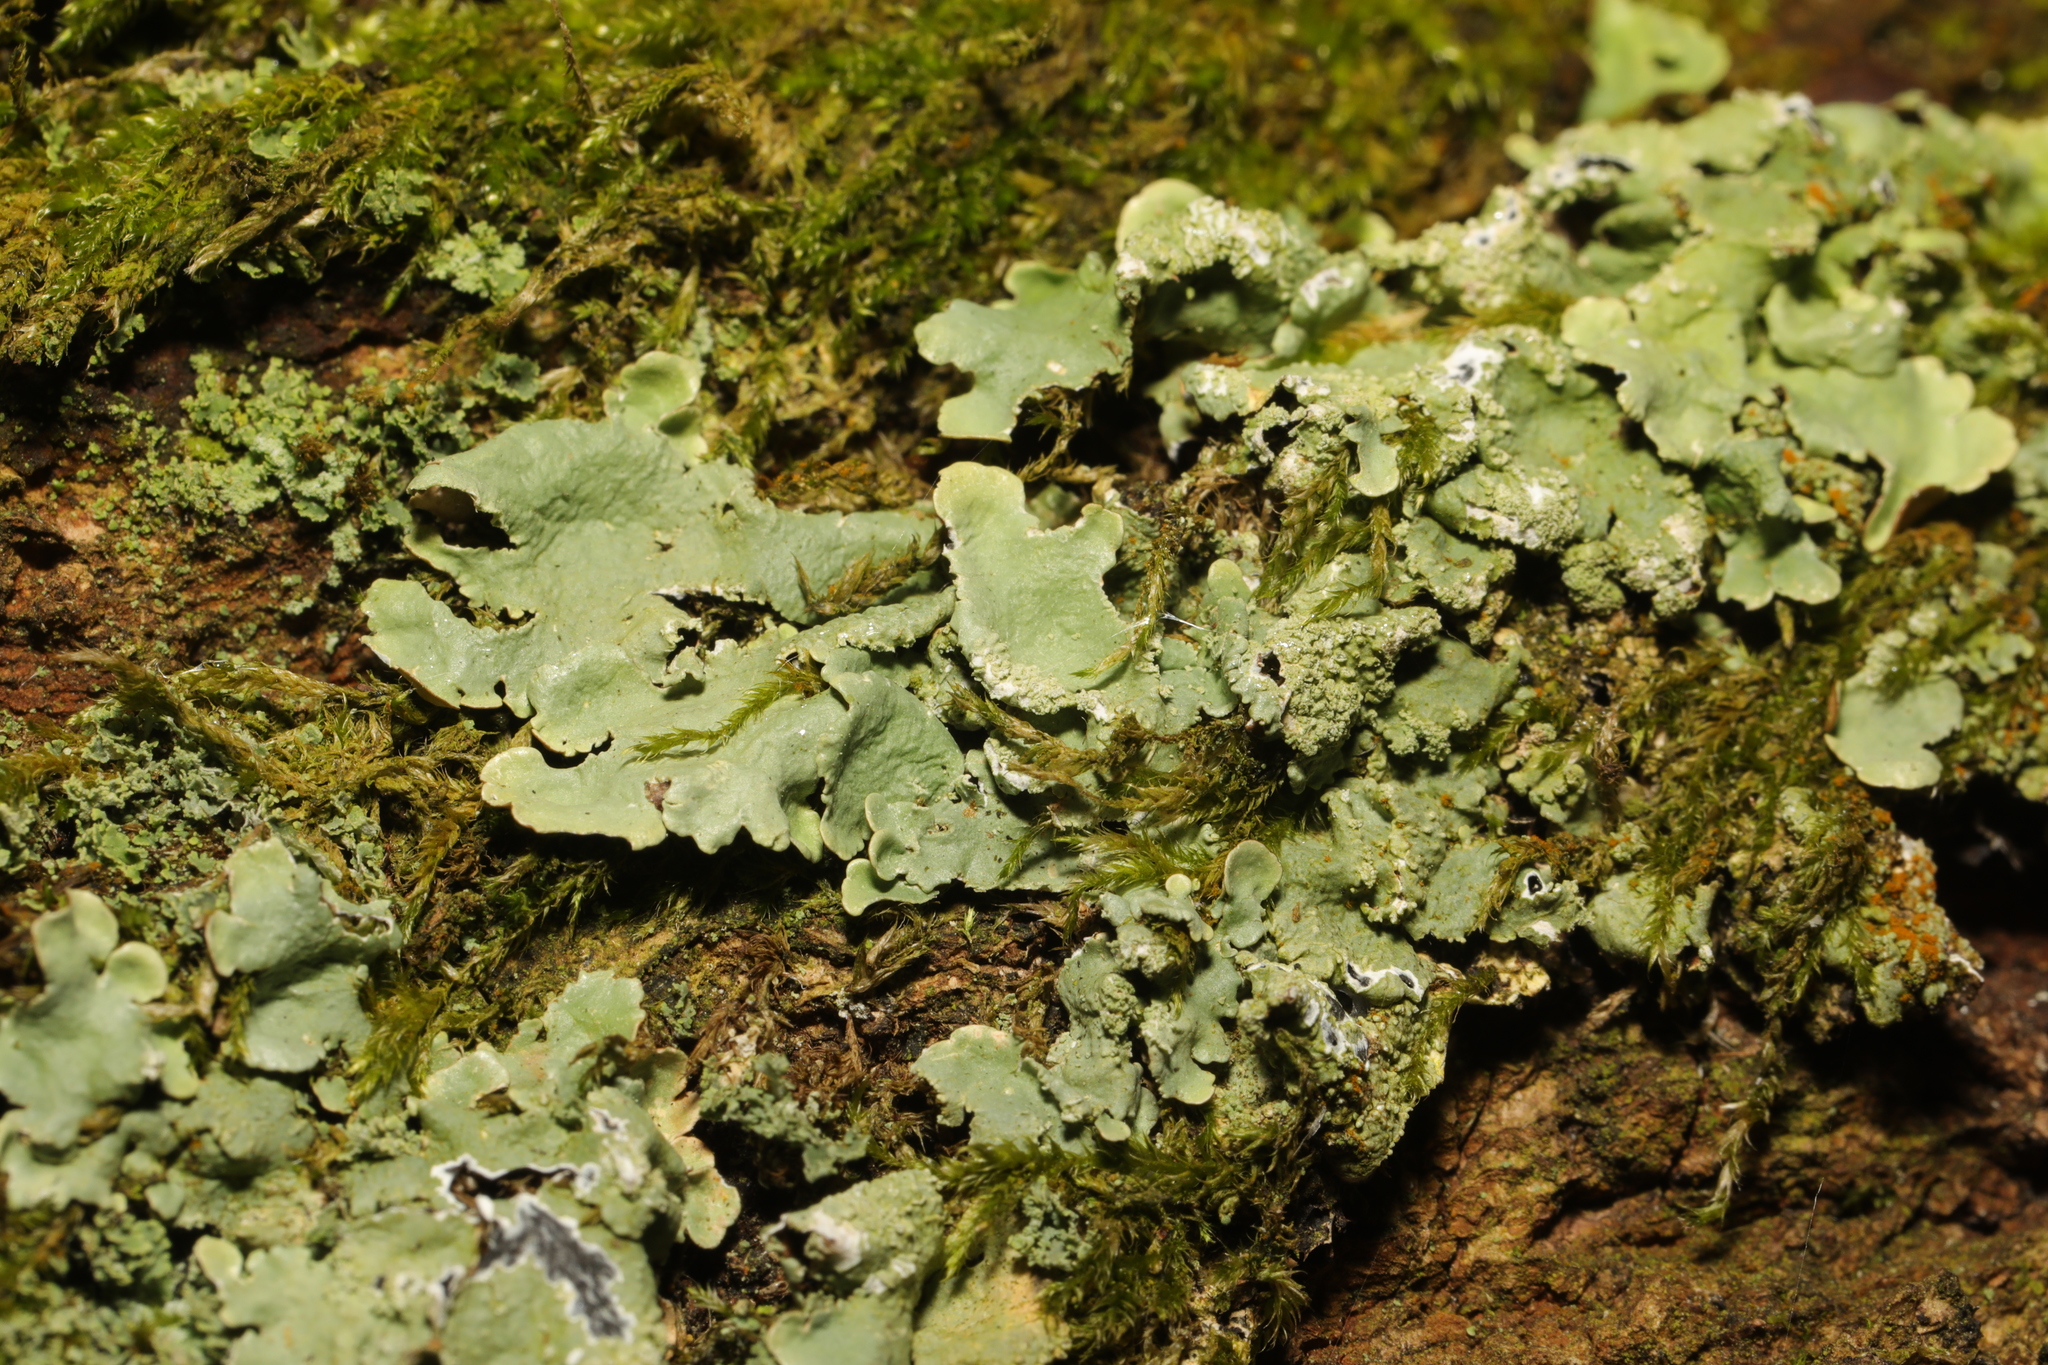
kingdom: Fungi
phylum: Ascomycota
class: Lecanoromycetes
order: Lecanorales
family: Parmeliaceae
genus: Flavoparmelia
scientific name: Flavoparmelia caperata
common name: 40-mile per hour lichen
